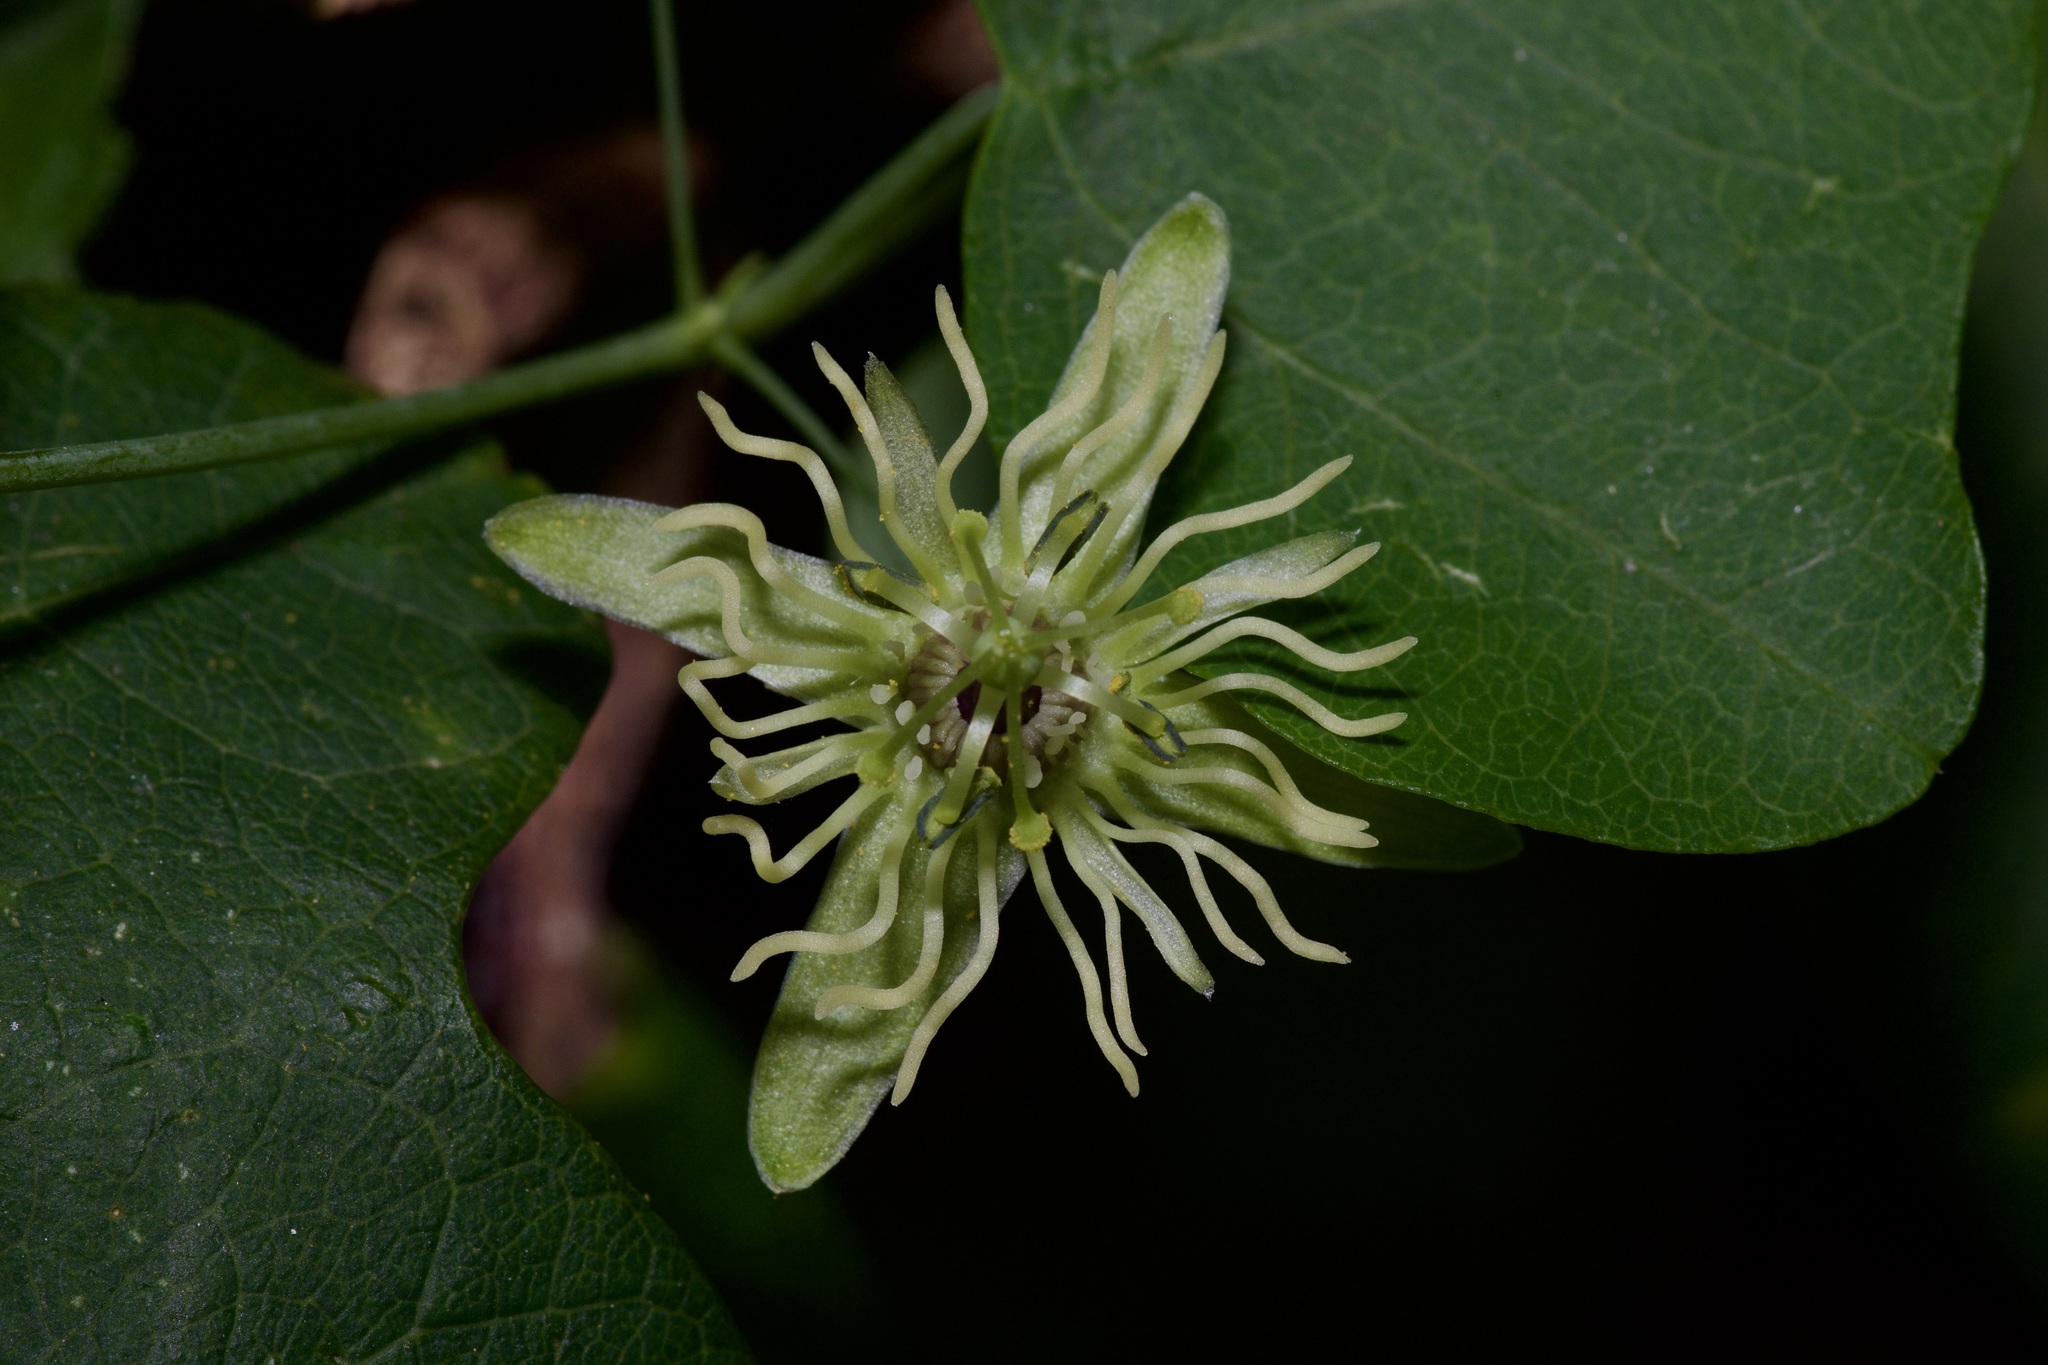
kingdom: Plantae
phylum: Tracheophyta
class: Magnoliopsida
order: Malpighiales
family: Passifloraceae
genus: Passiflora
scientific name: Passiflora lutea
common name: Yellow passionflower
